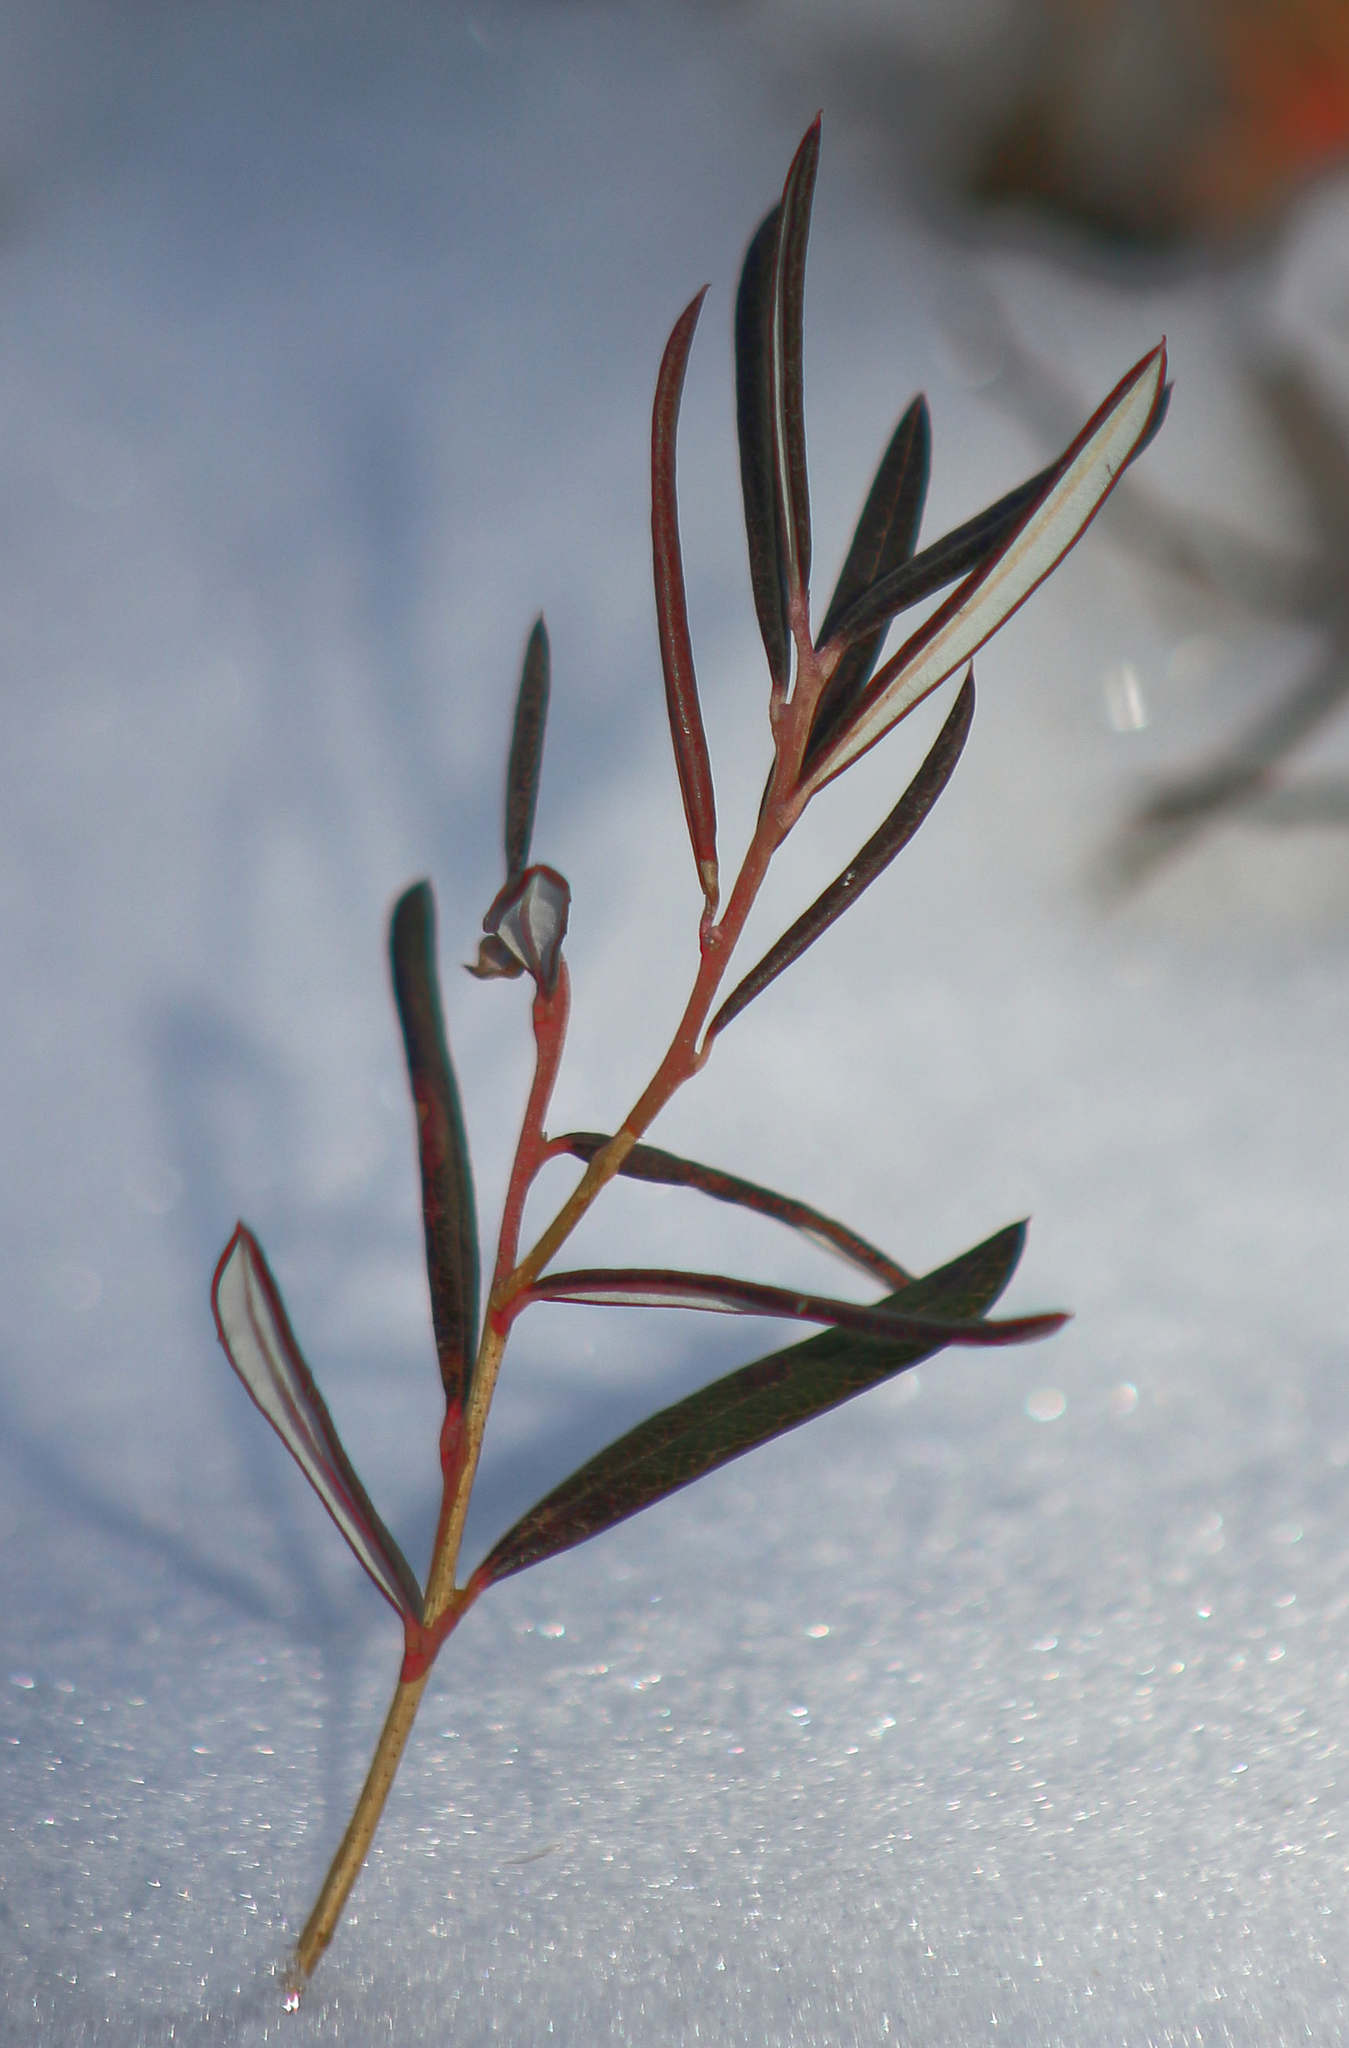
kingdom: Plantae
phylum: Tracheophyta
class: Magnoliopsida
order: Ericales
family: Ericaceae
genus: Andromeda
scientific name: Andromeda polifolia
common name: Bog-rosemary
